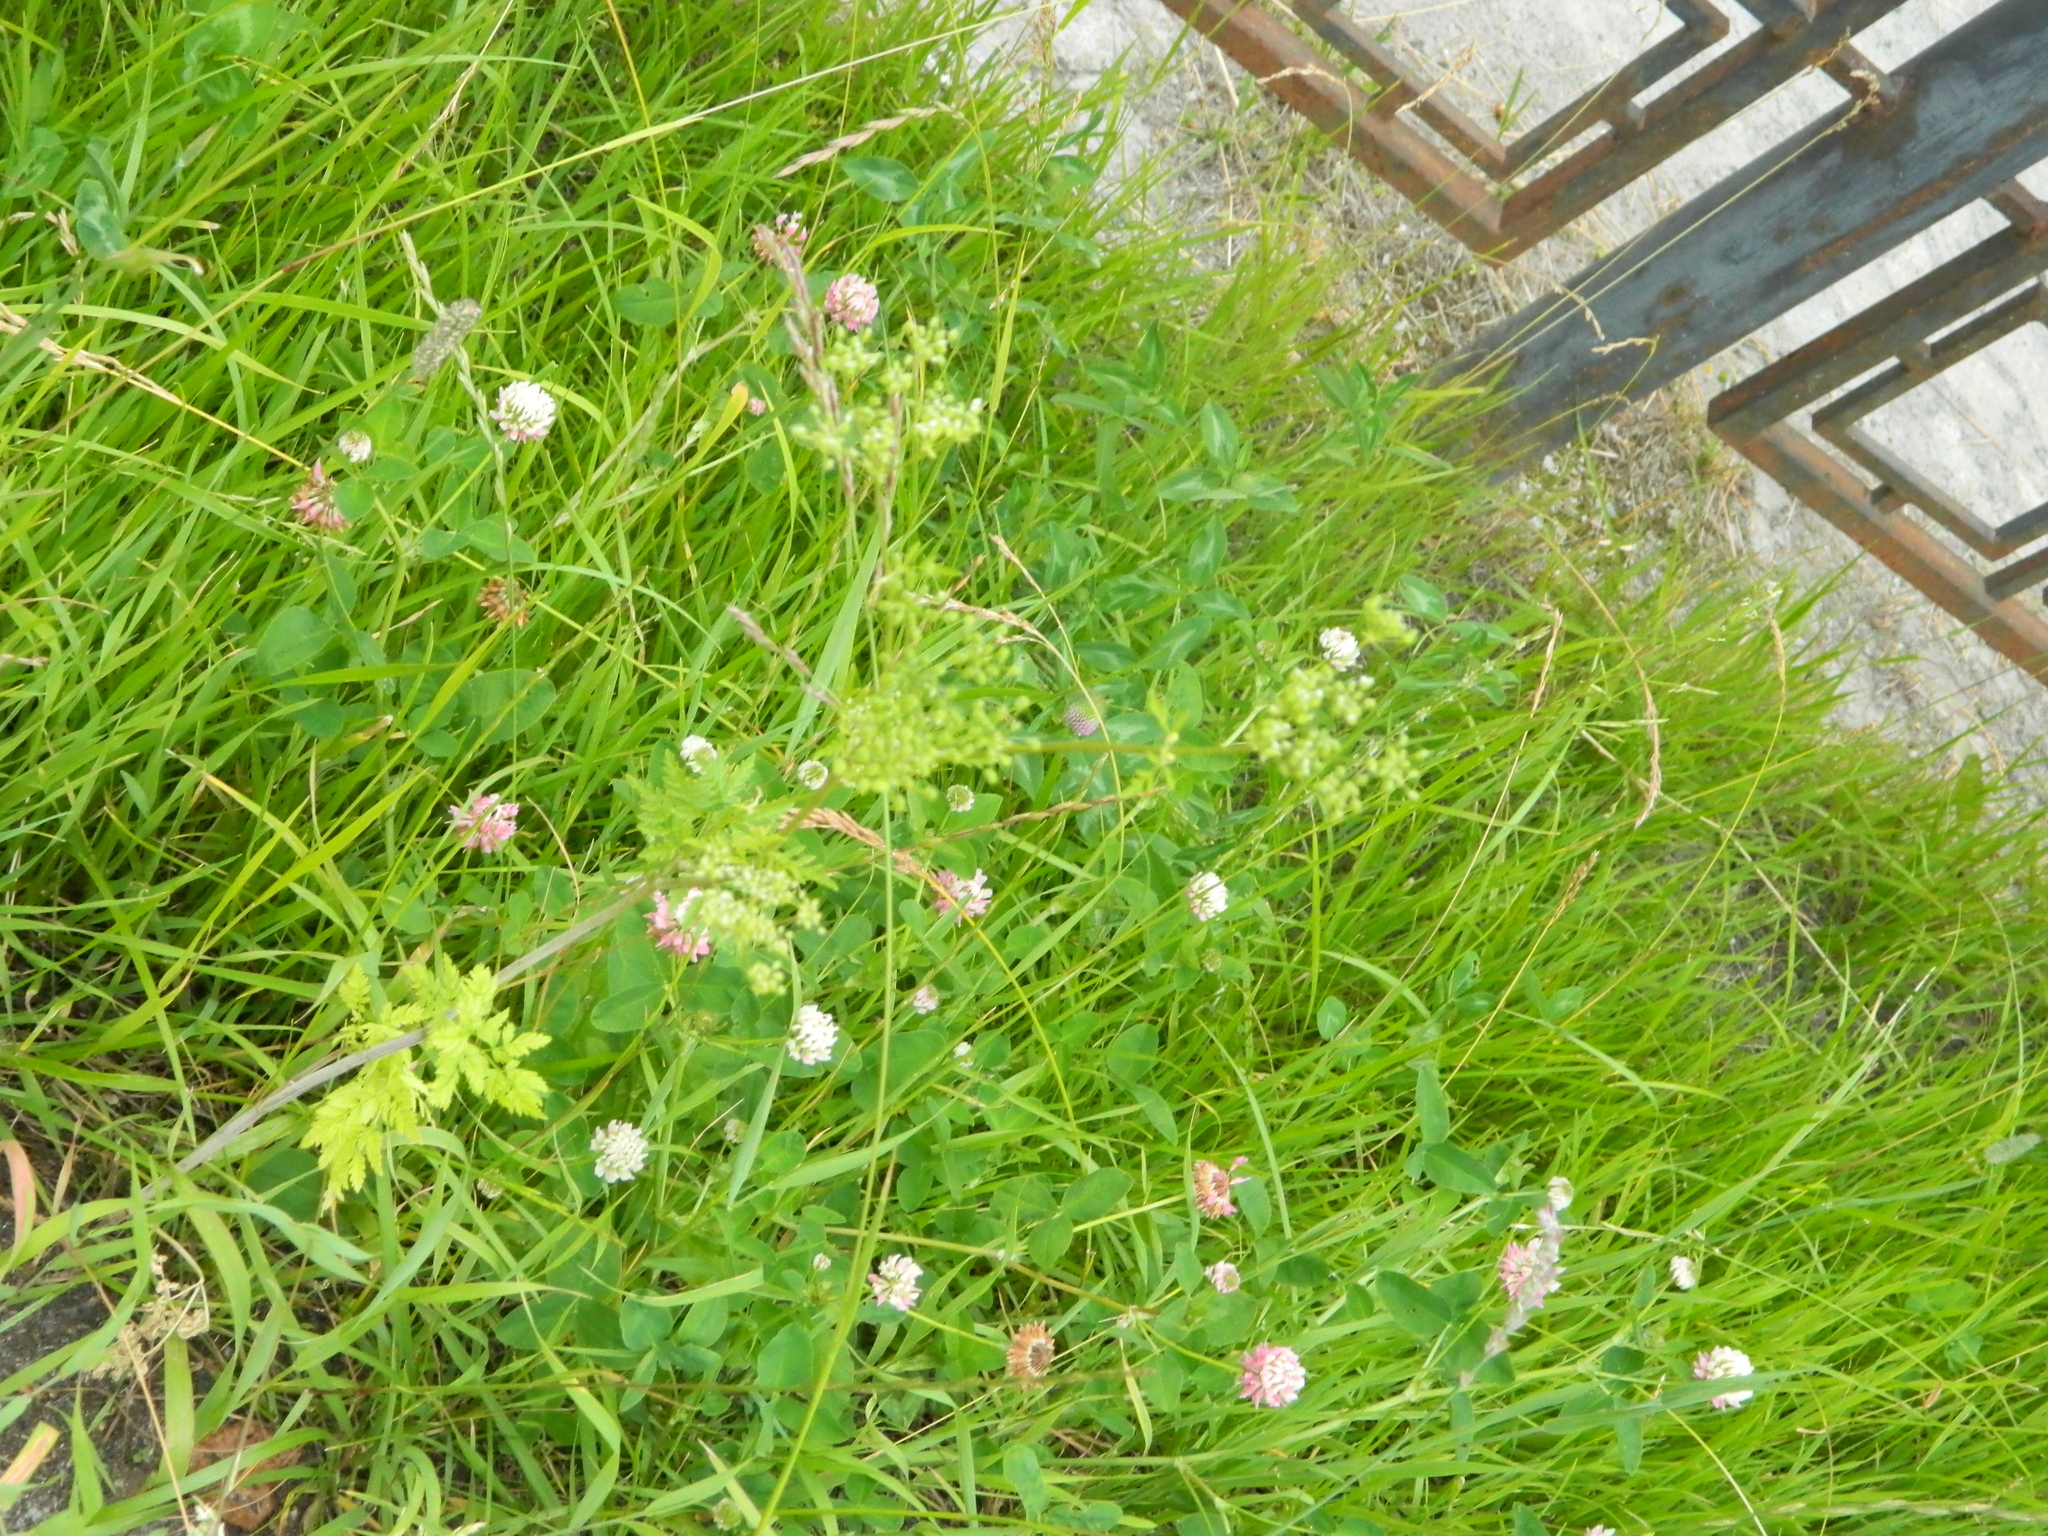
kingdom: Plantae
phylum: Tracheophyta
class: Magnoliopsida
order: Fabales
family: Fabaceae
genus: Trifolium
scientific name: Trifolium hybridum
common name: Alsike clover
